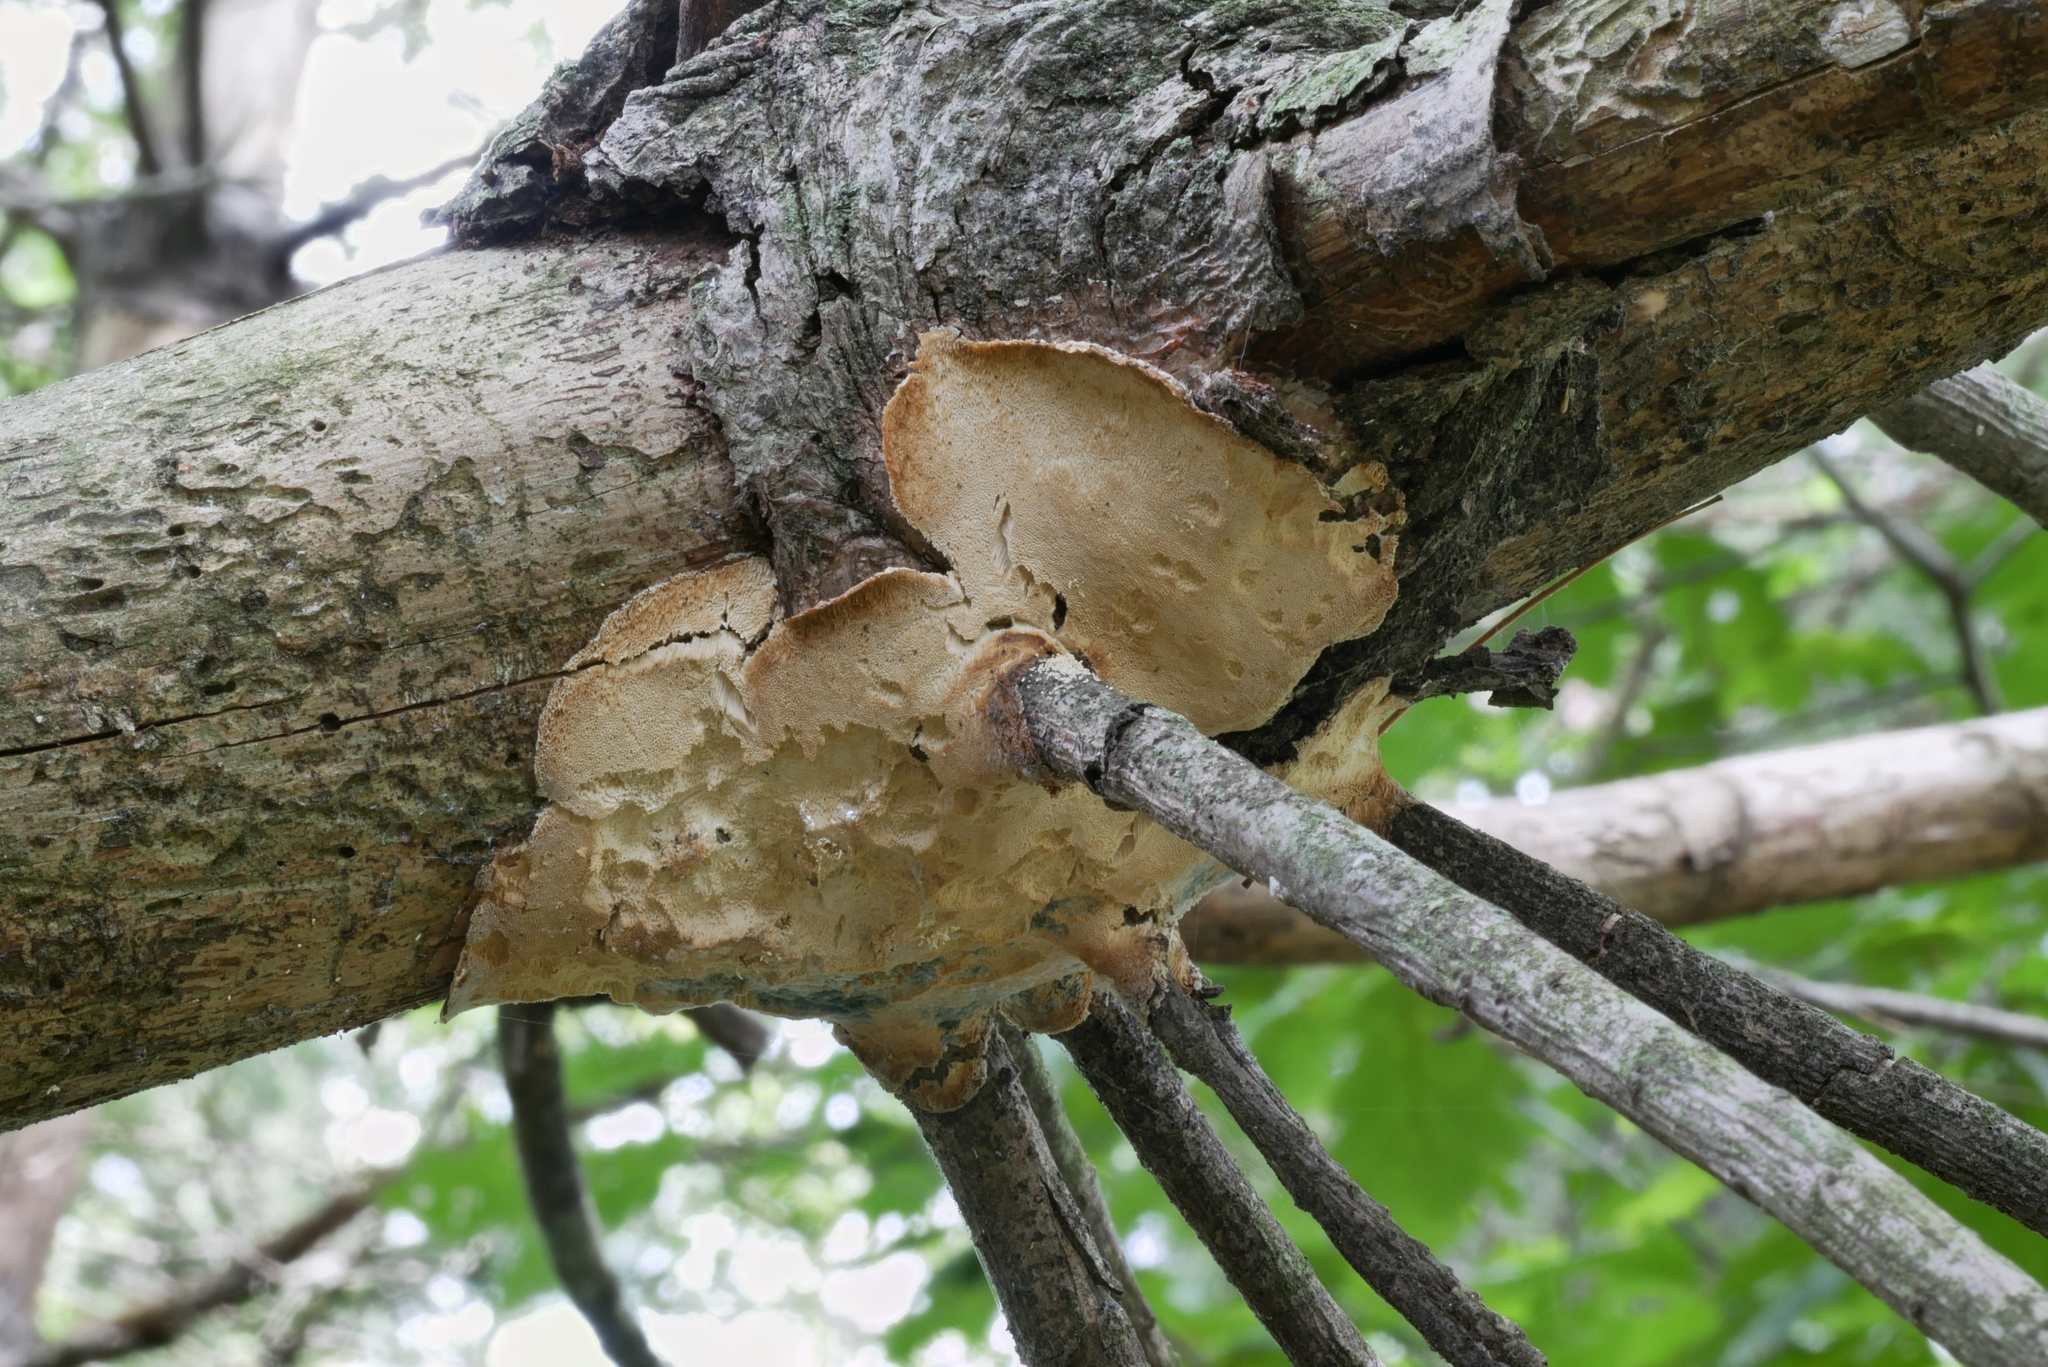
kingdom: Fungi
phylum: Basidiomycota
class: Agaricomycetes
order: Polyporales
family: Polyporaceae
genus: Dichomitus
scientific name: Dichomitus squalens
